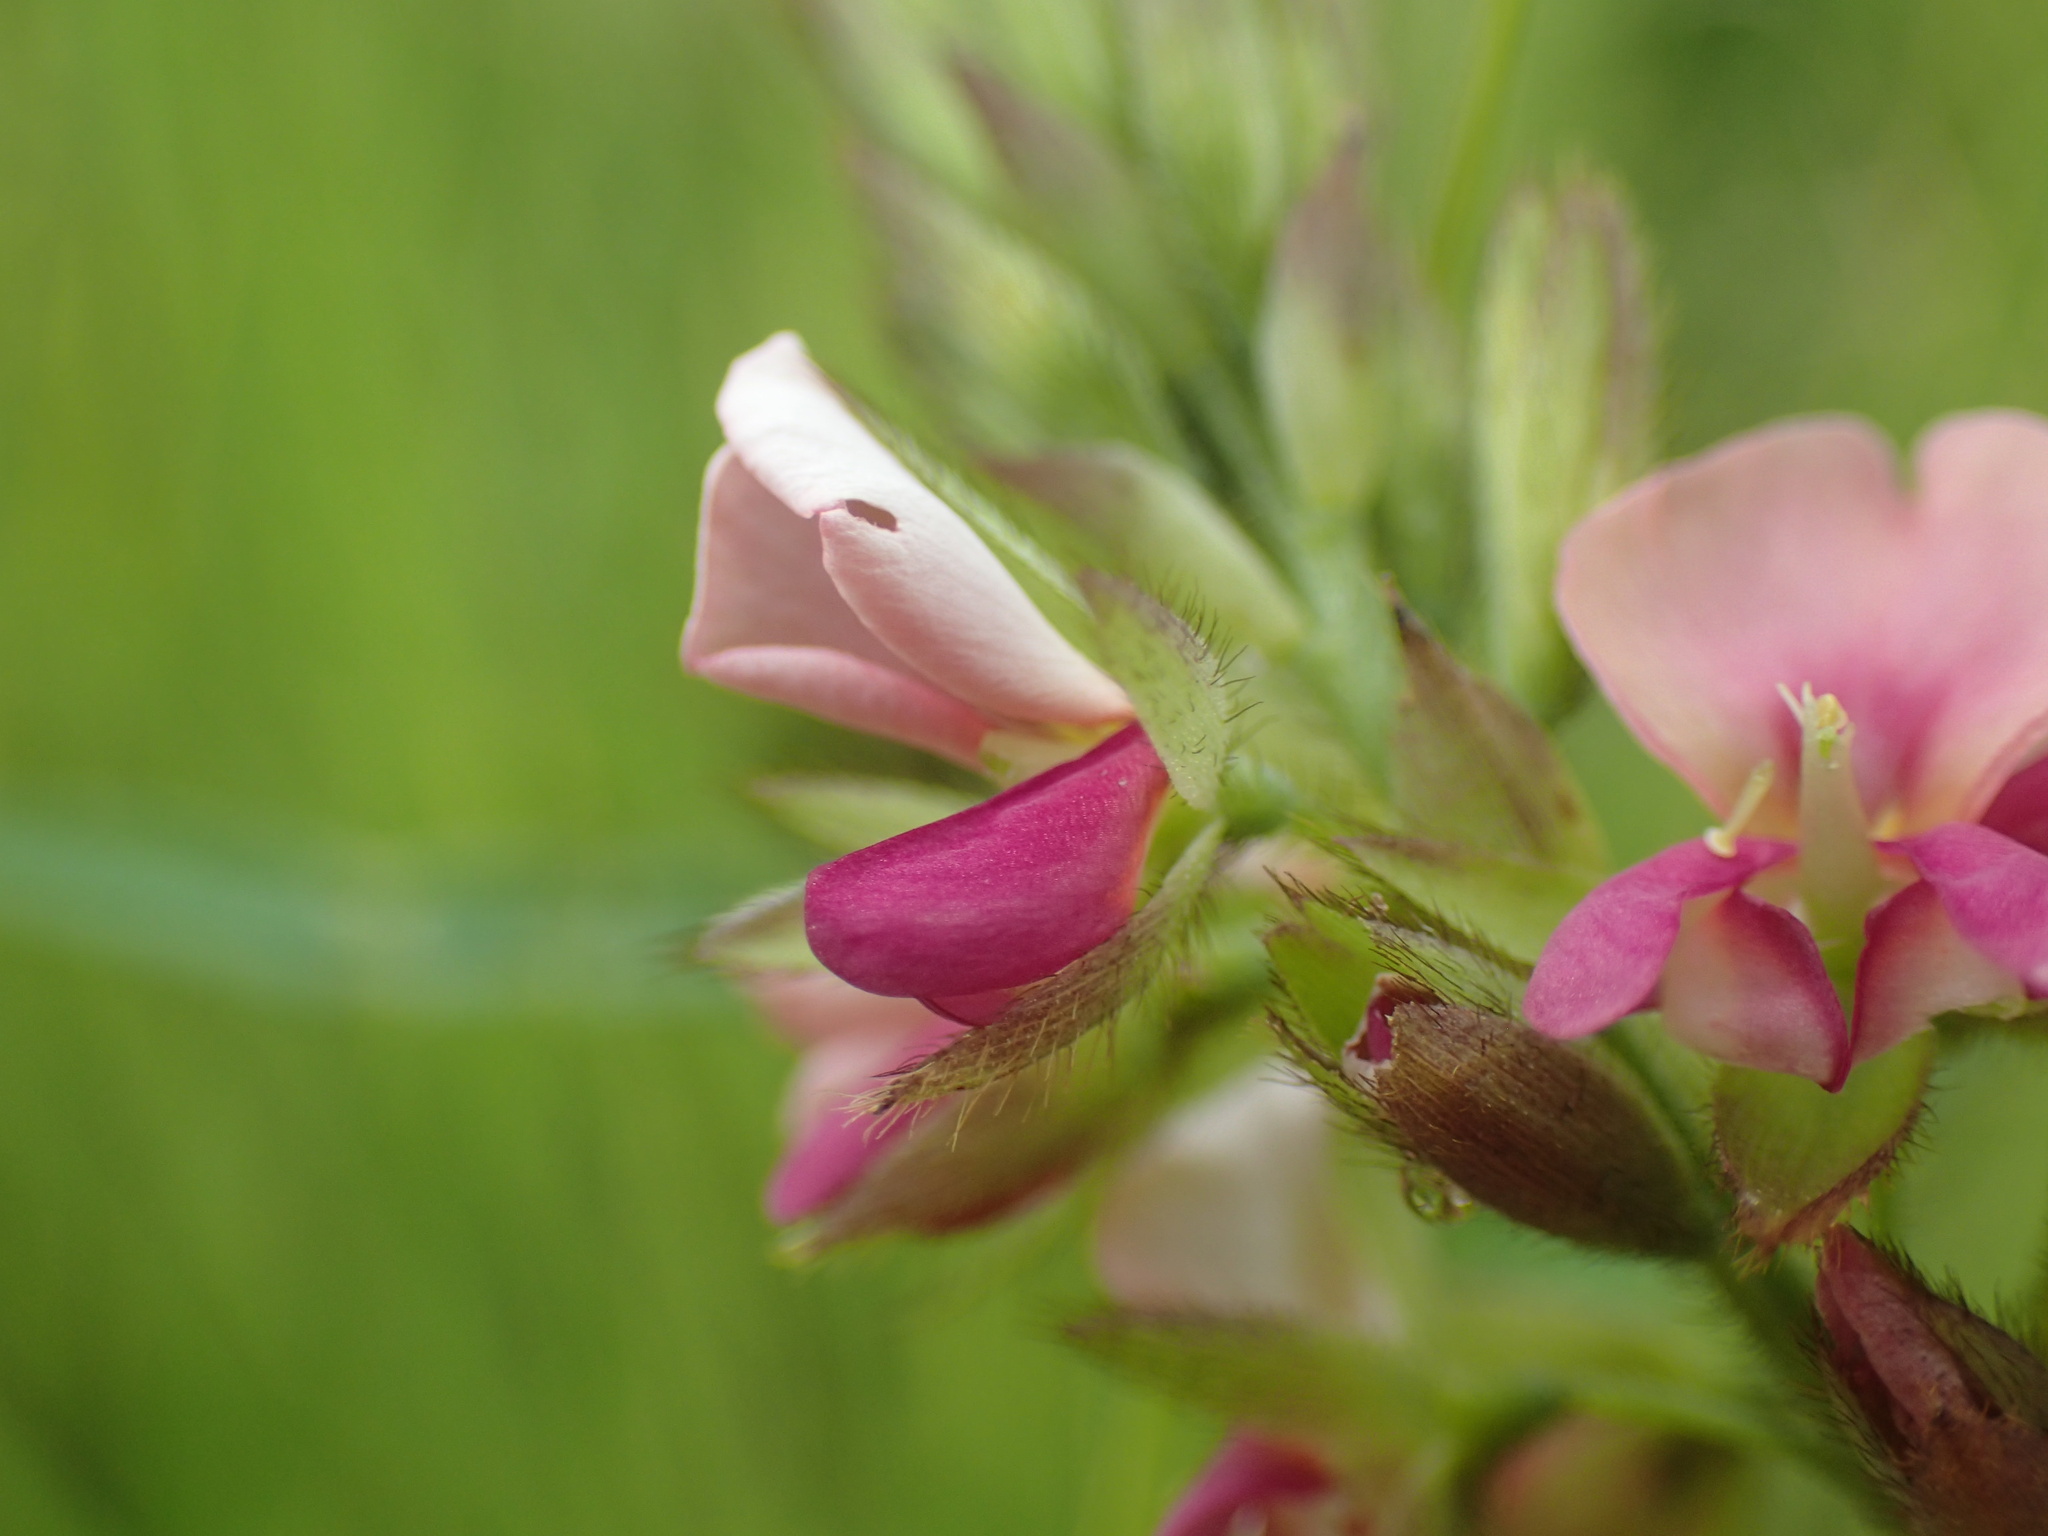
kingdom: Plantae
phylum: Tracheophyta
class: Magnoliopsida
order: Fabales
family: Fabaceae
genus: Alysicarpus
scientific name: Alysicarpus rugosus
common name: Red moneywort
